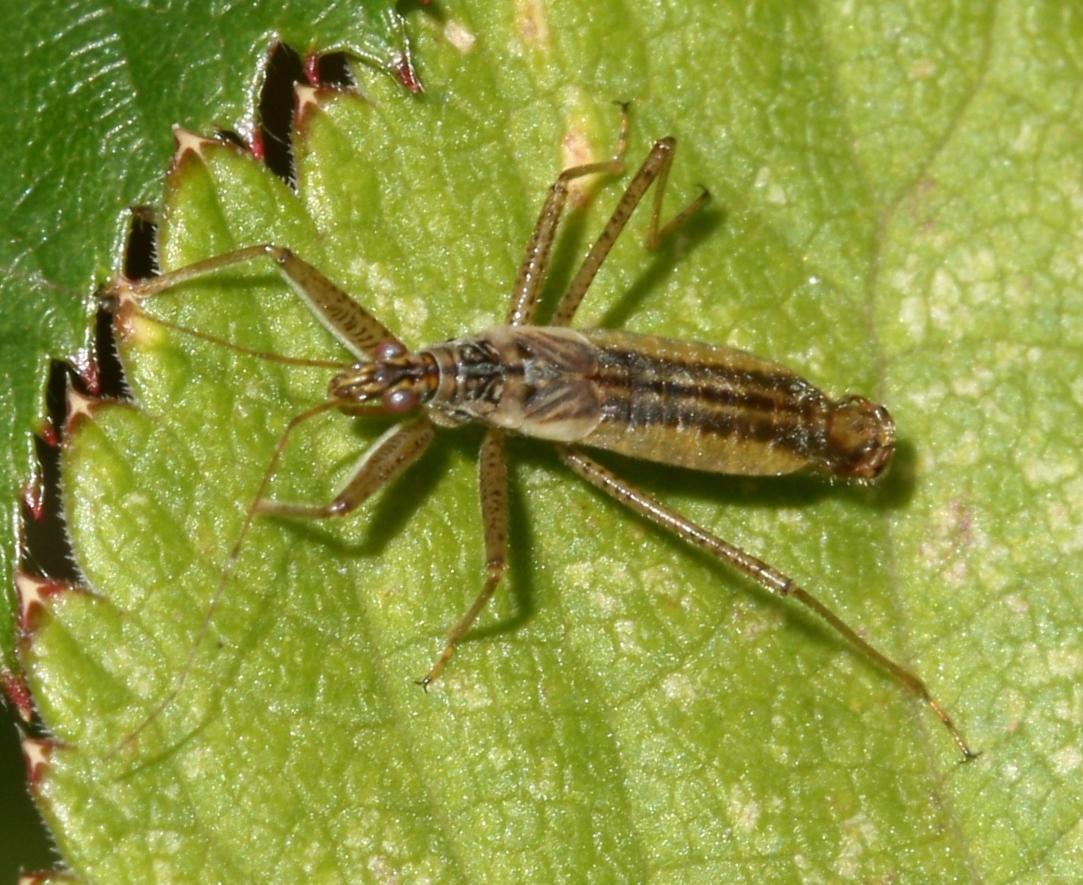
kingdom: Animalia
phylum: Arthropoda
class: Insecta
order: Hemiptera
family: Nabidae
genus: Nabis
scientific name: Nabis limbatus
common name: Marsh damselbug
